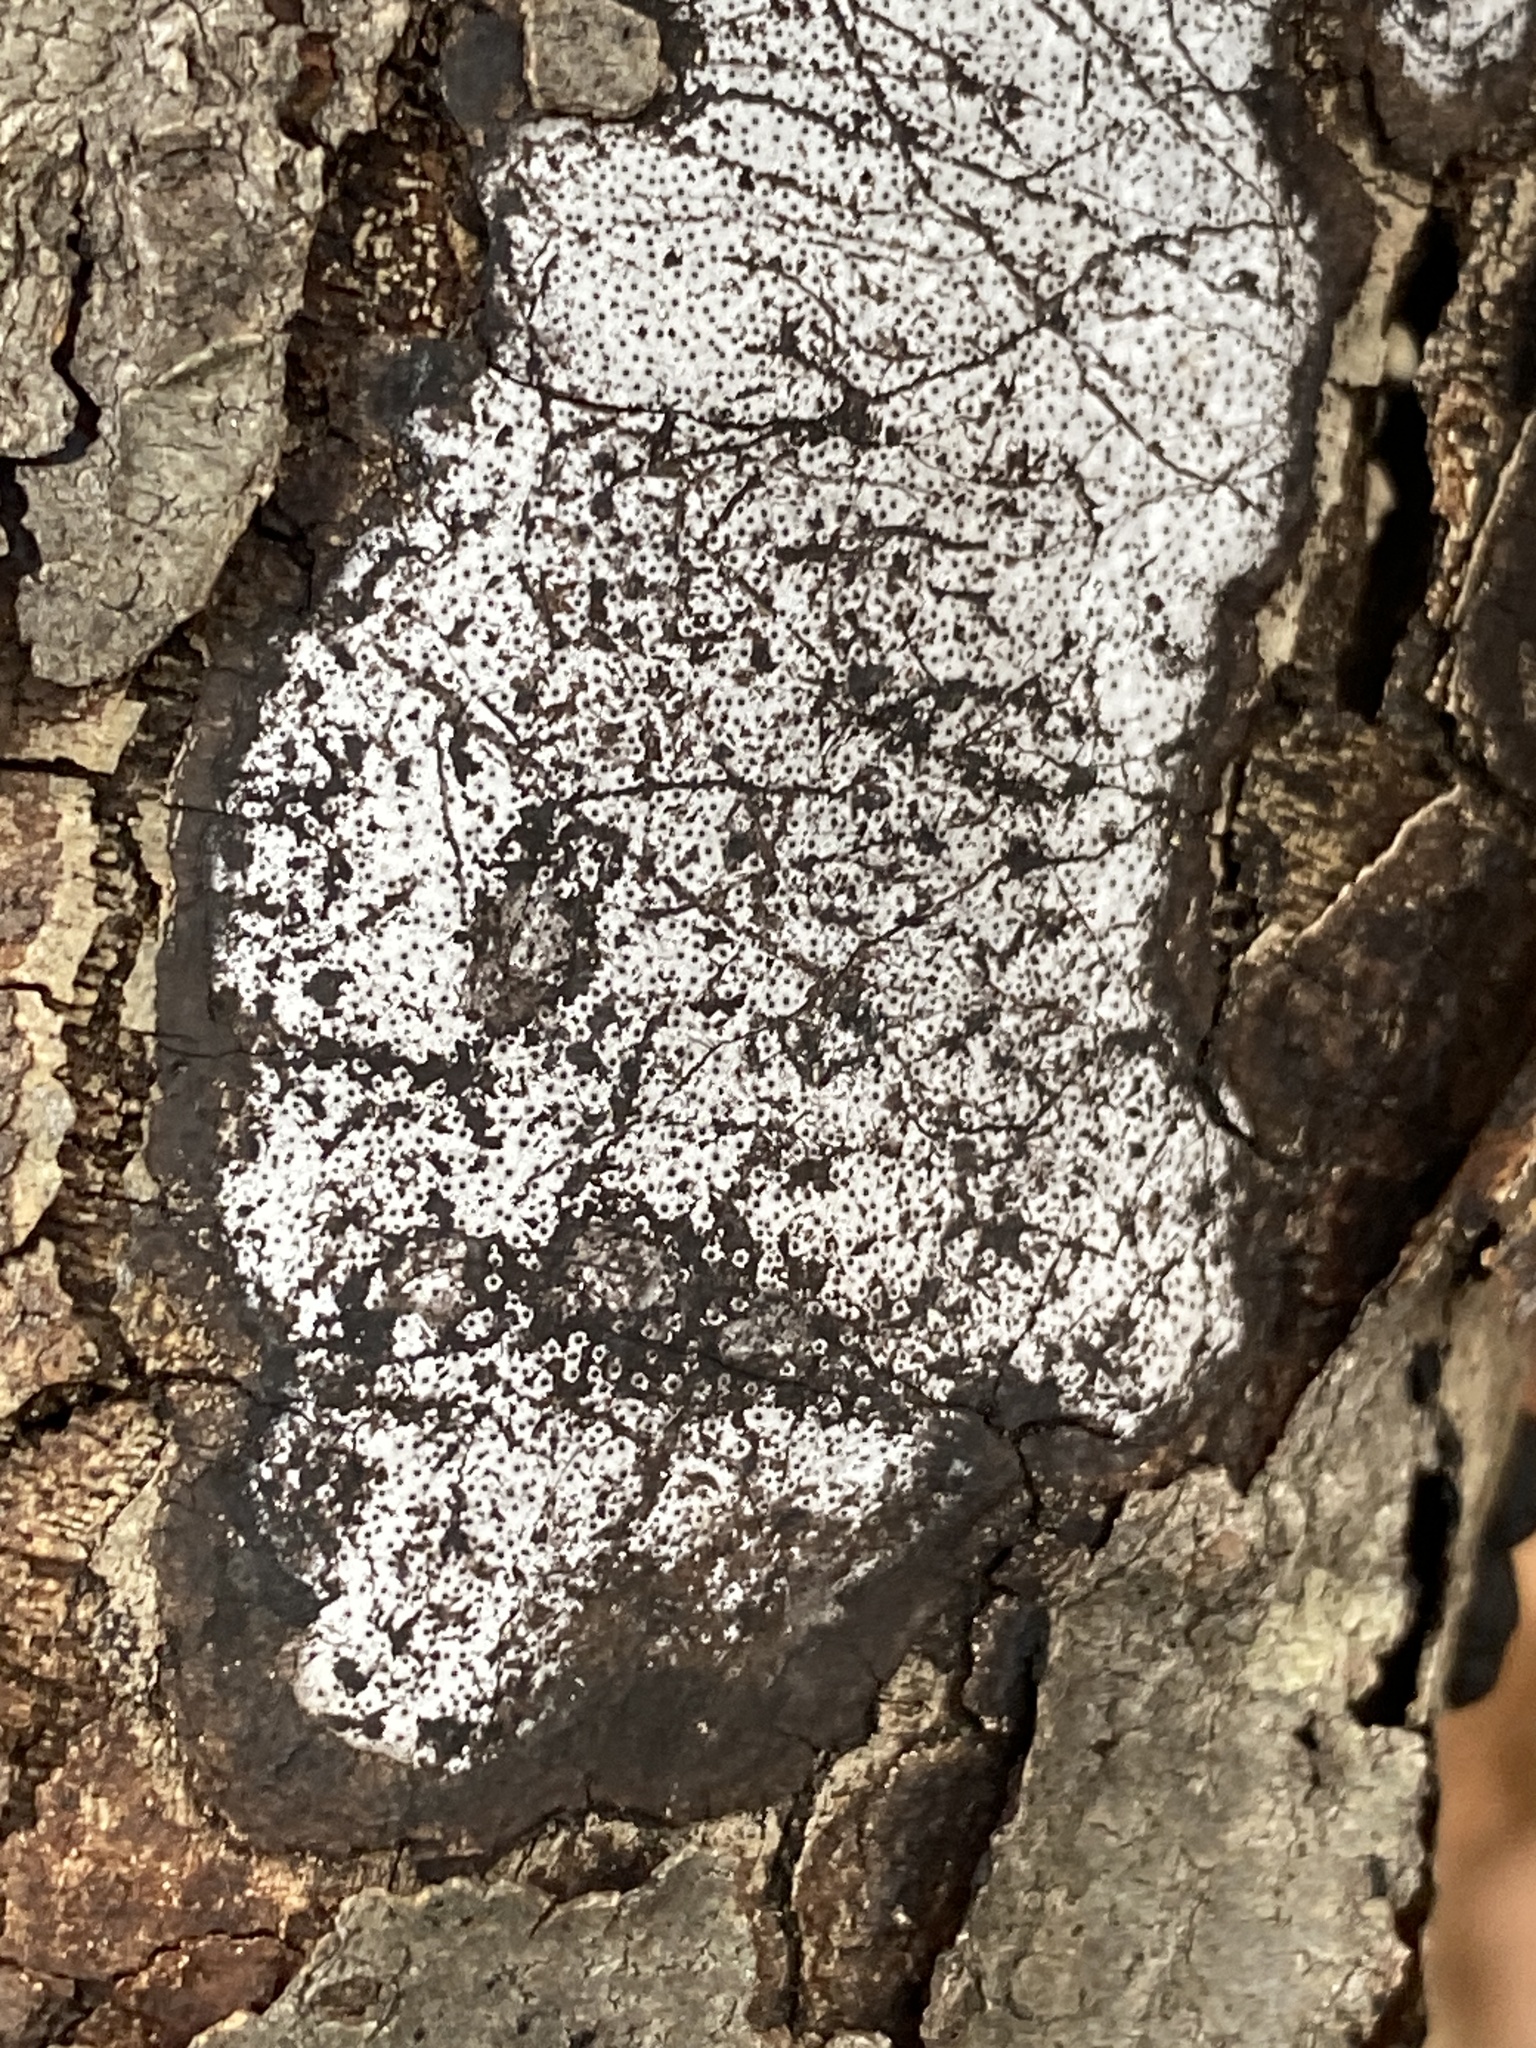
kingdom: Fungi
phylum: Ascomycota
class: Sordariomycetes
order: Xylariales
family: Graphostromataceae
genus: Biscogniauxia
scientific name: Biscogniauxia atropunctata
